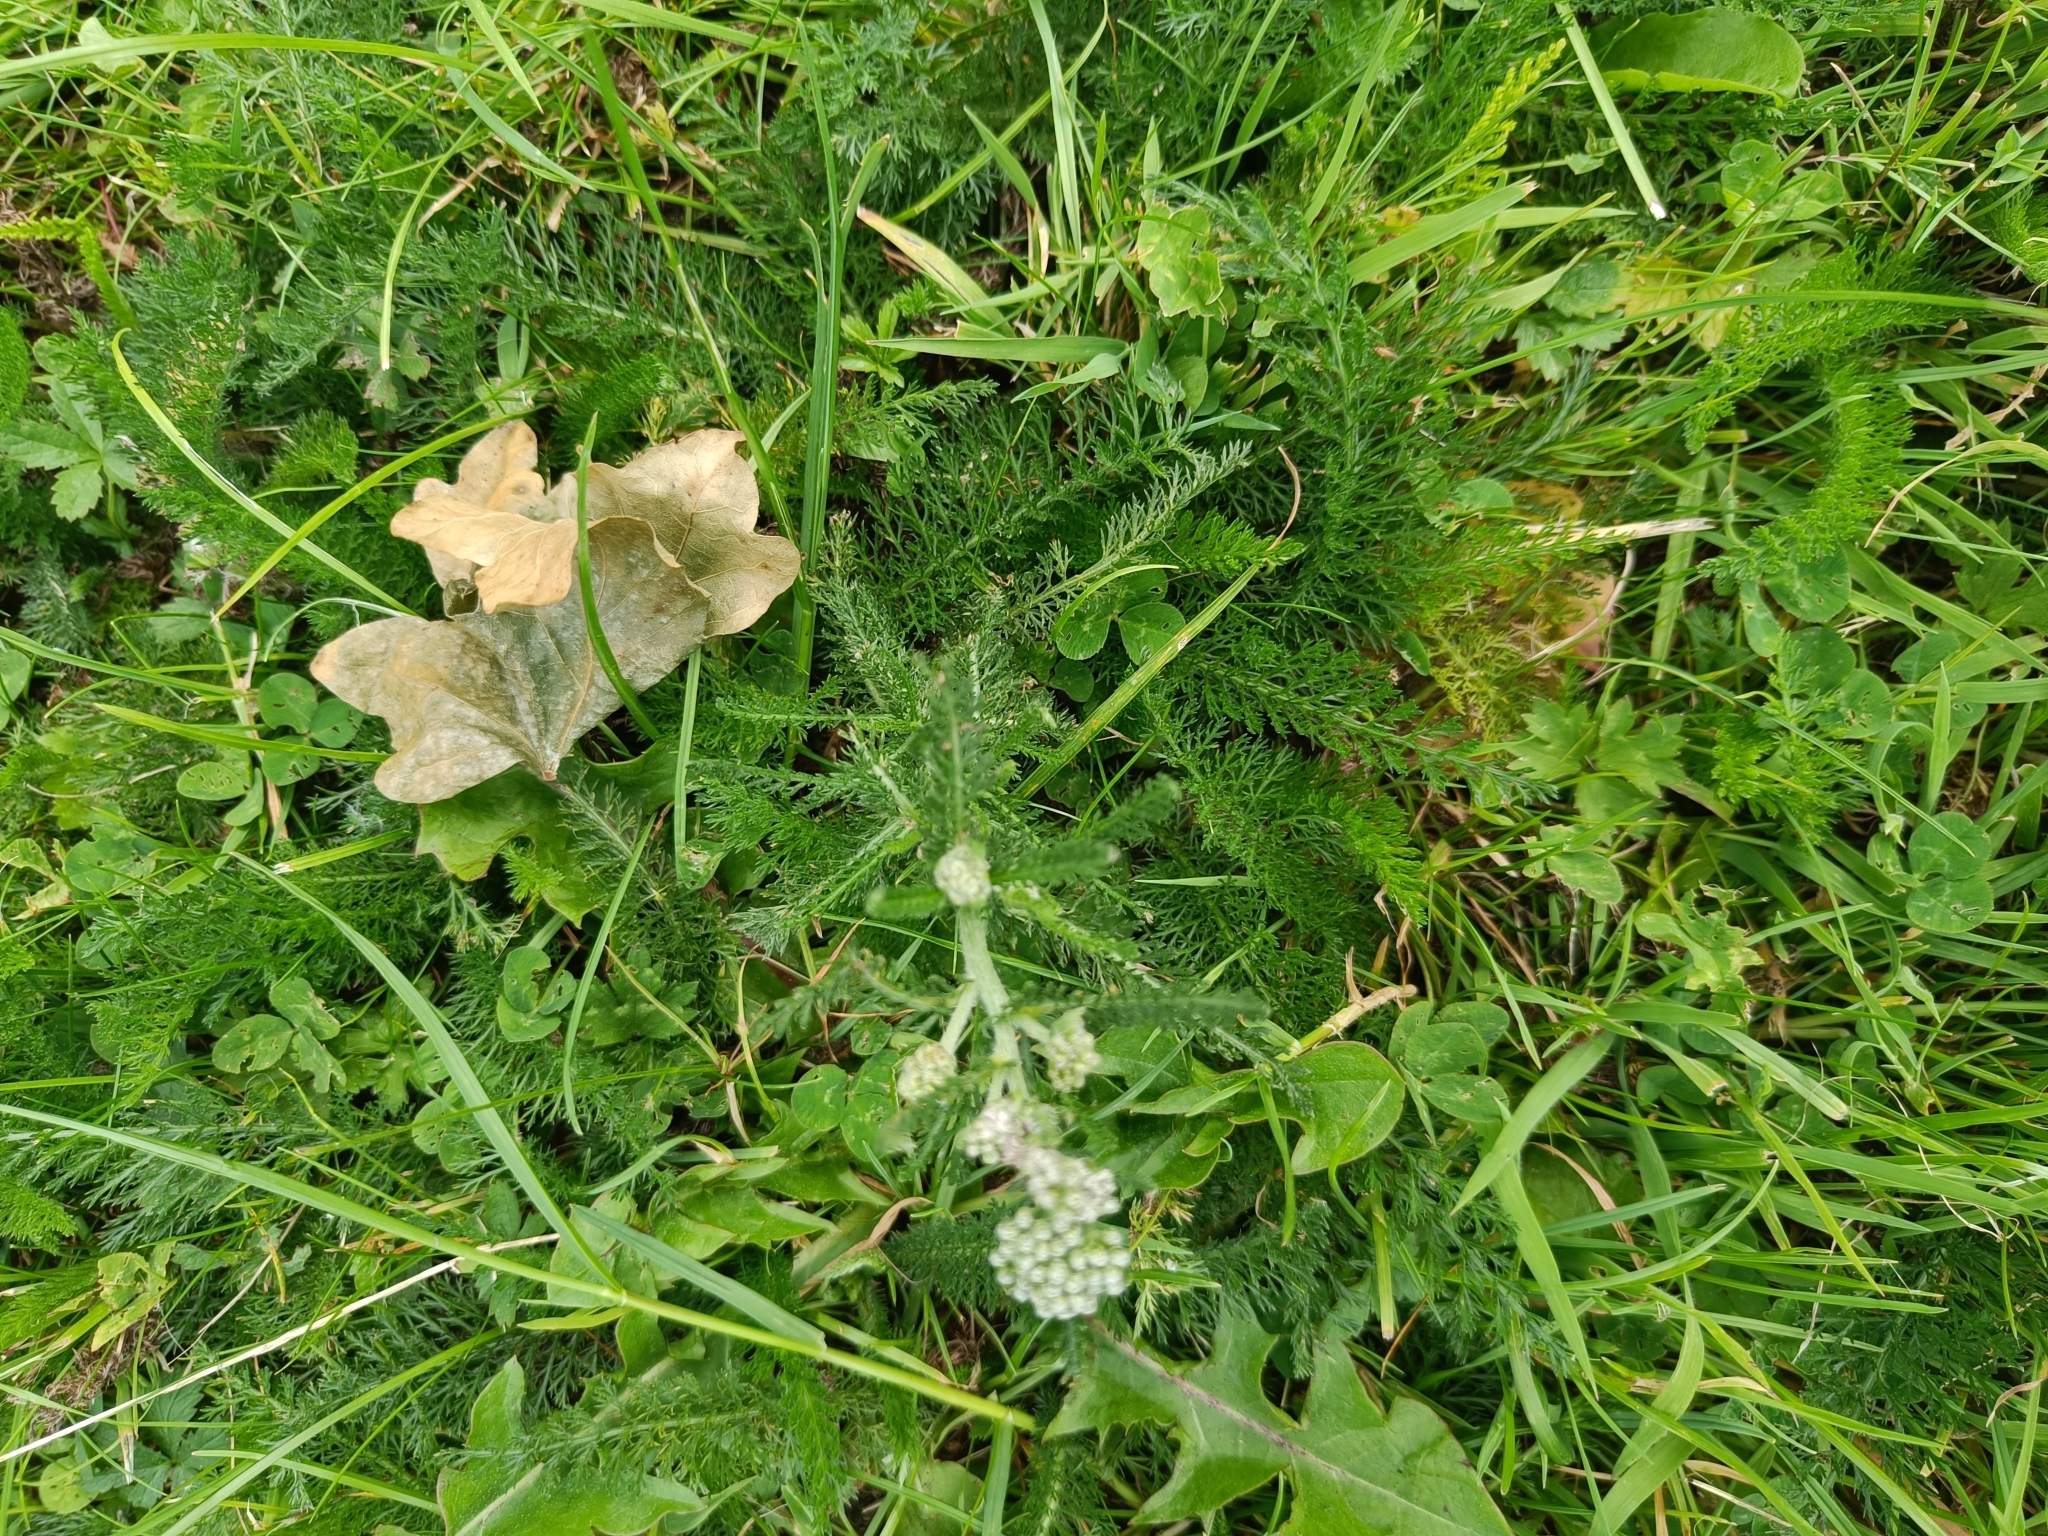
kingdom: Plantae
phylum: Tracheophyta
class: Magnoliopsida
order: Asterales
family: Asteraceae
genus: Achillea
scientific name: Achillea millefolium
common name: Yarrow
